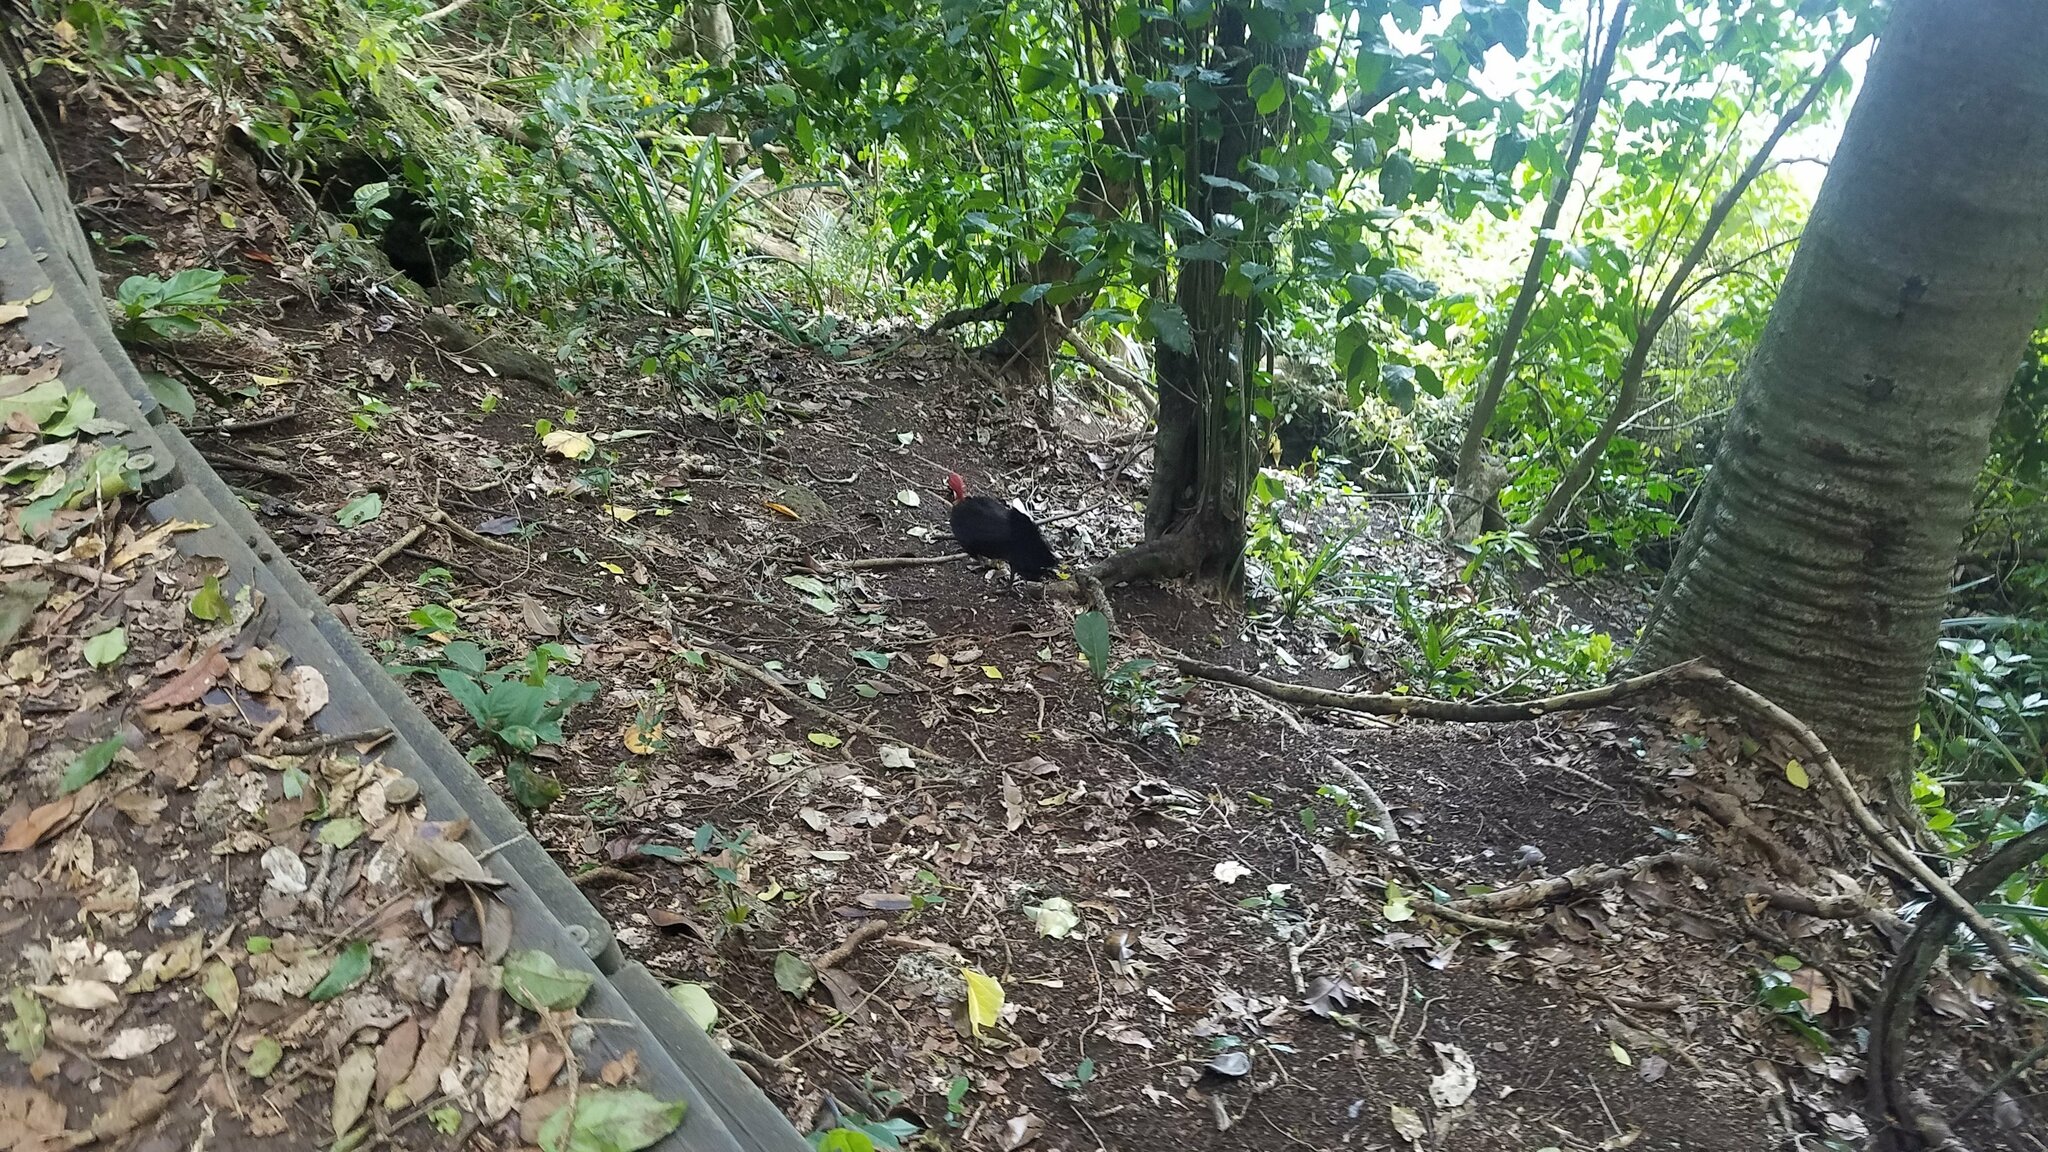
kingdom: Animalia
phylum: Chordata
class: Aves
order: Galliformes
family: Megapodiidae
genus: Alectura
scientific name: Alectura lathami
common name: Australian brushturkey
